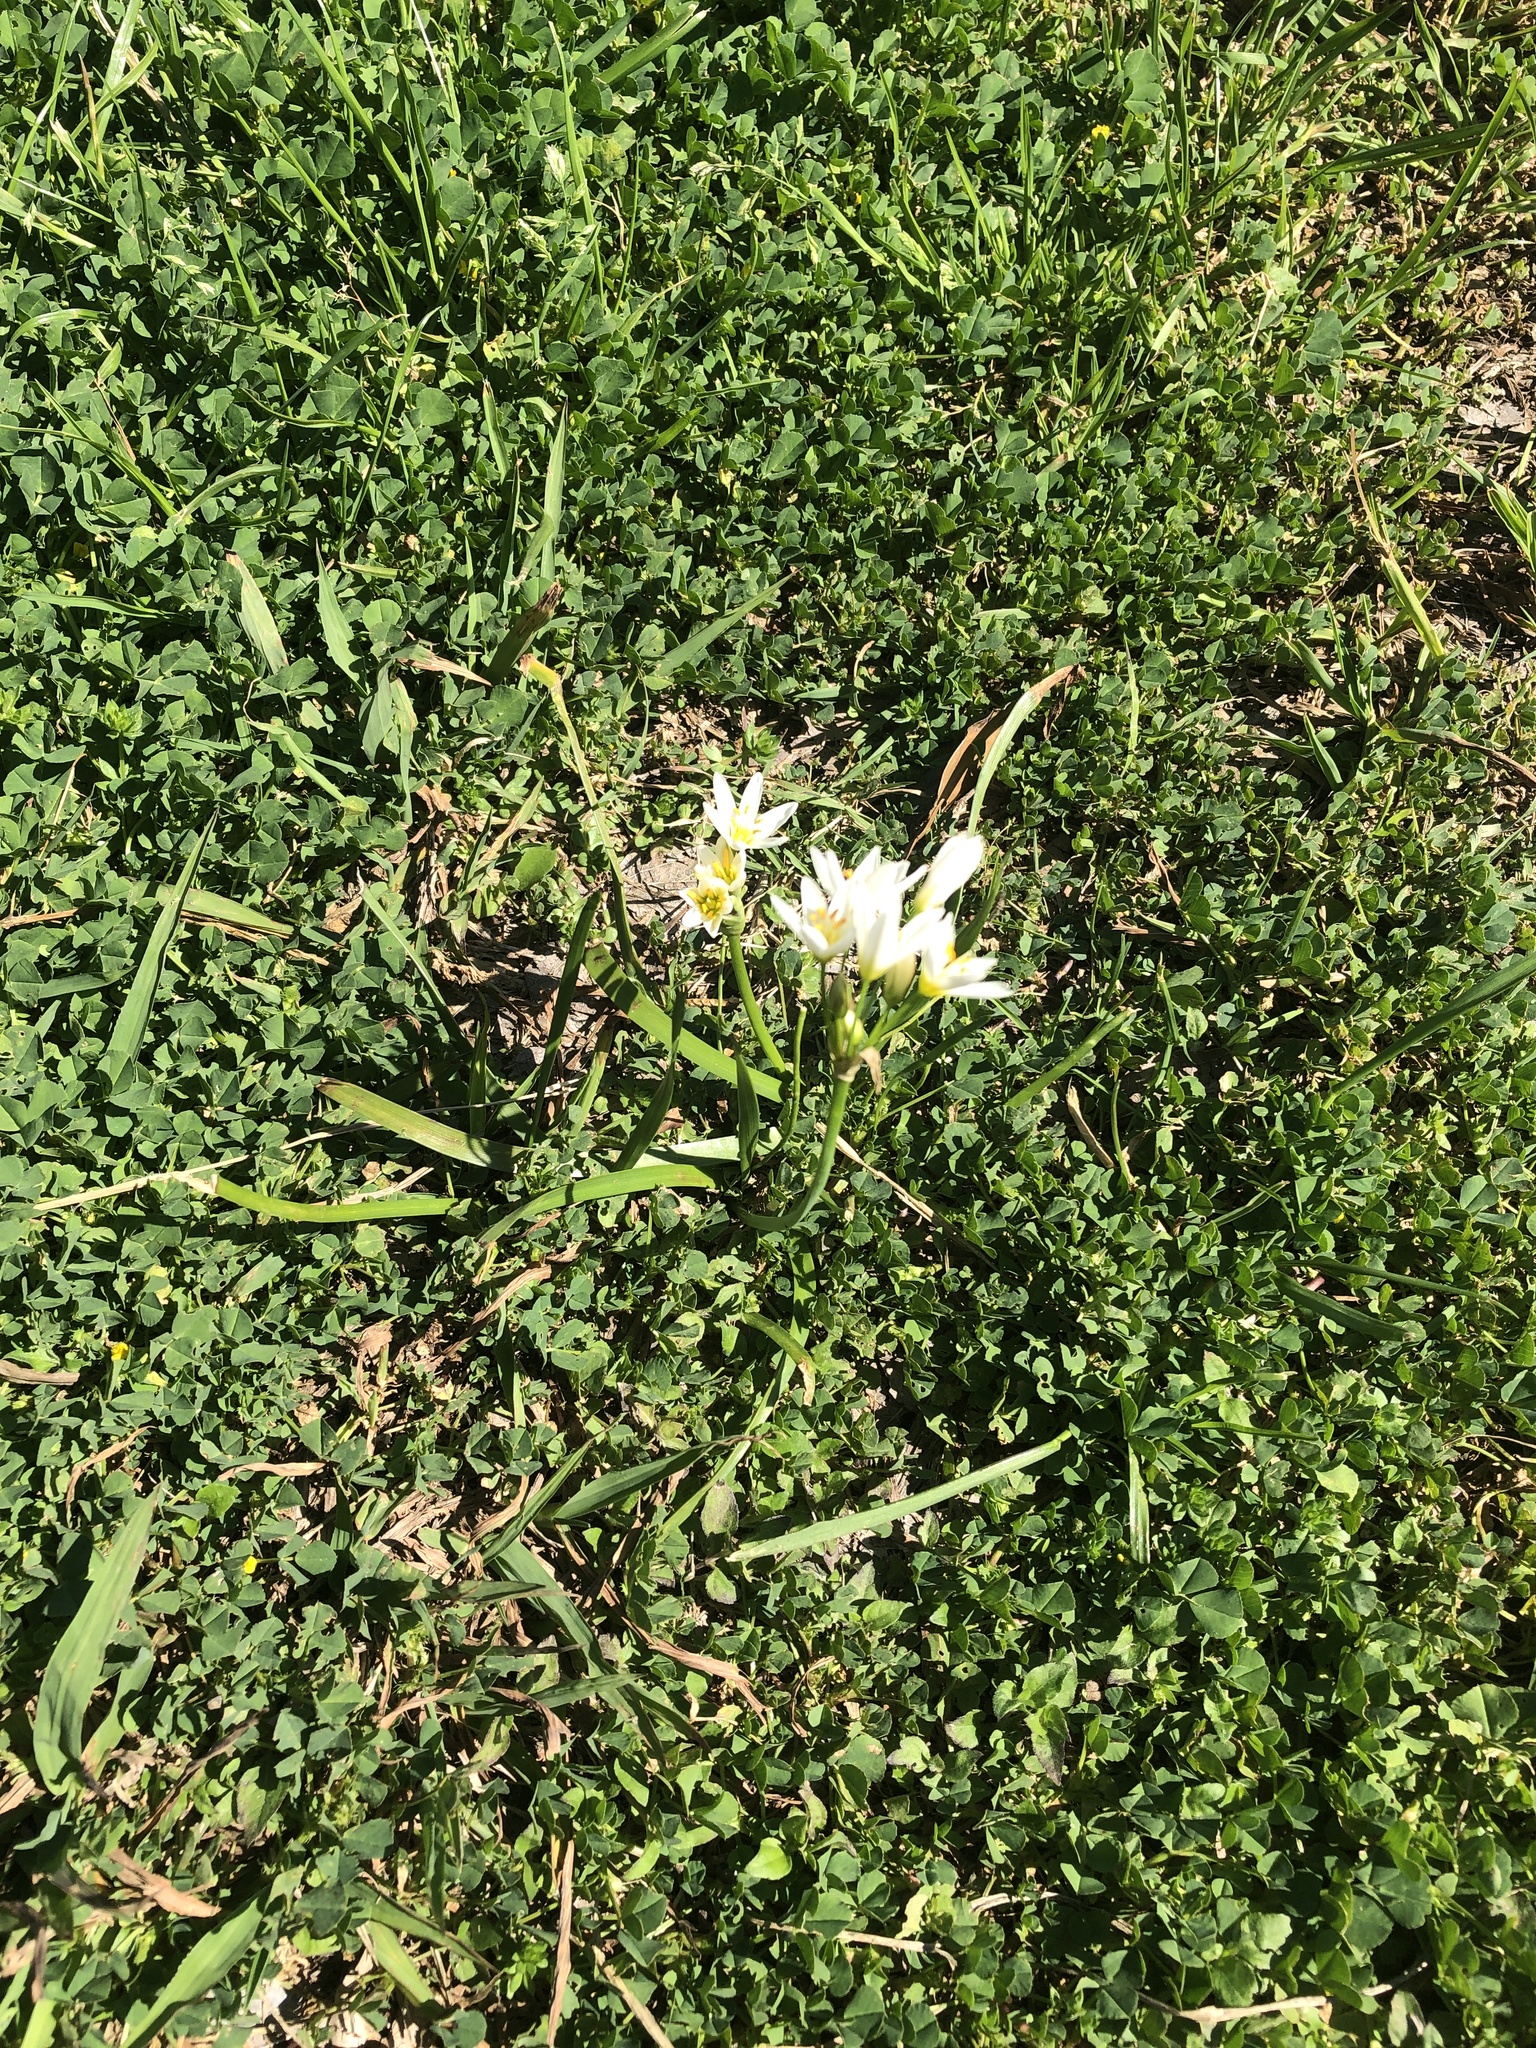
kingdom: Plantae
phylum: Tracheophyta
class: Liliopsida
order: Asparagales
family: Amaryllidaceae
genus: Nothoscordum
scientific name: Nothoscordum bivalve
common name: Crow-poison
